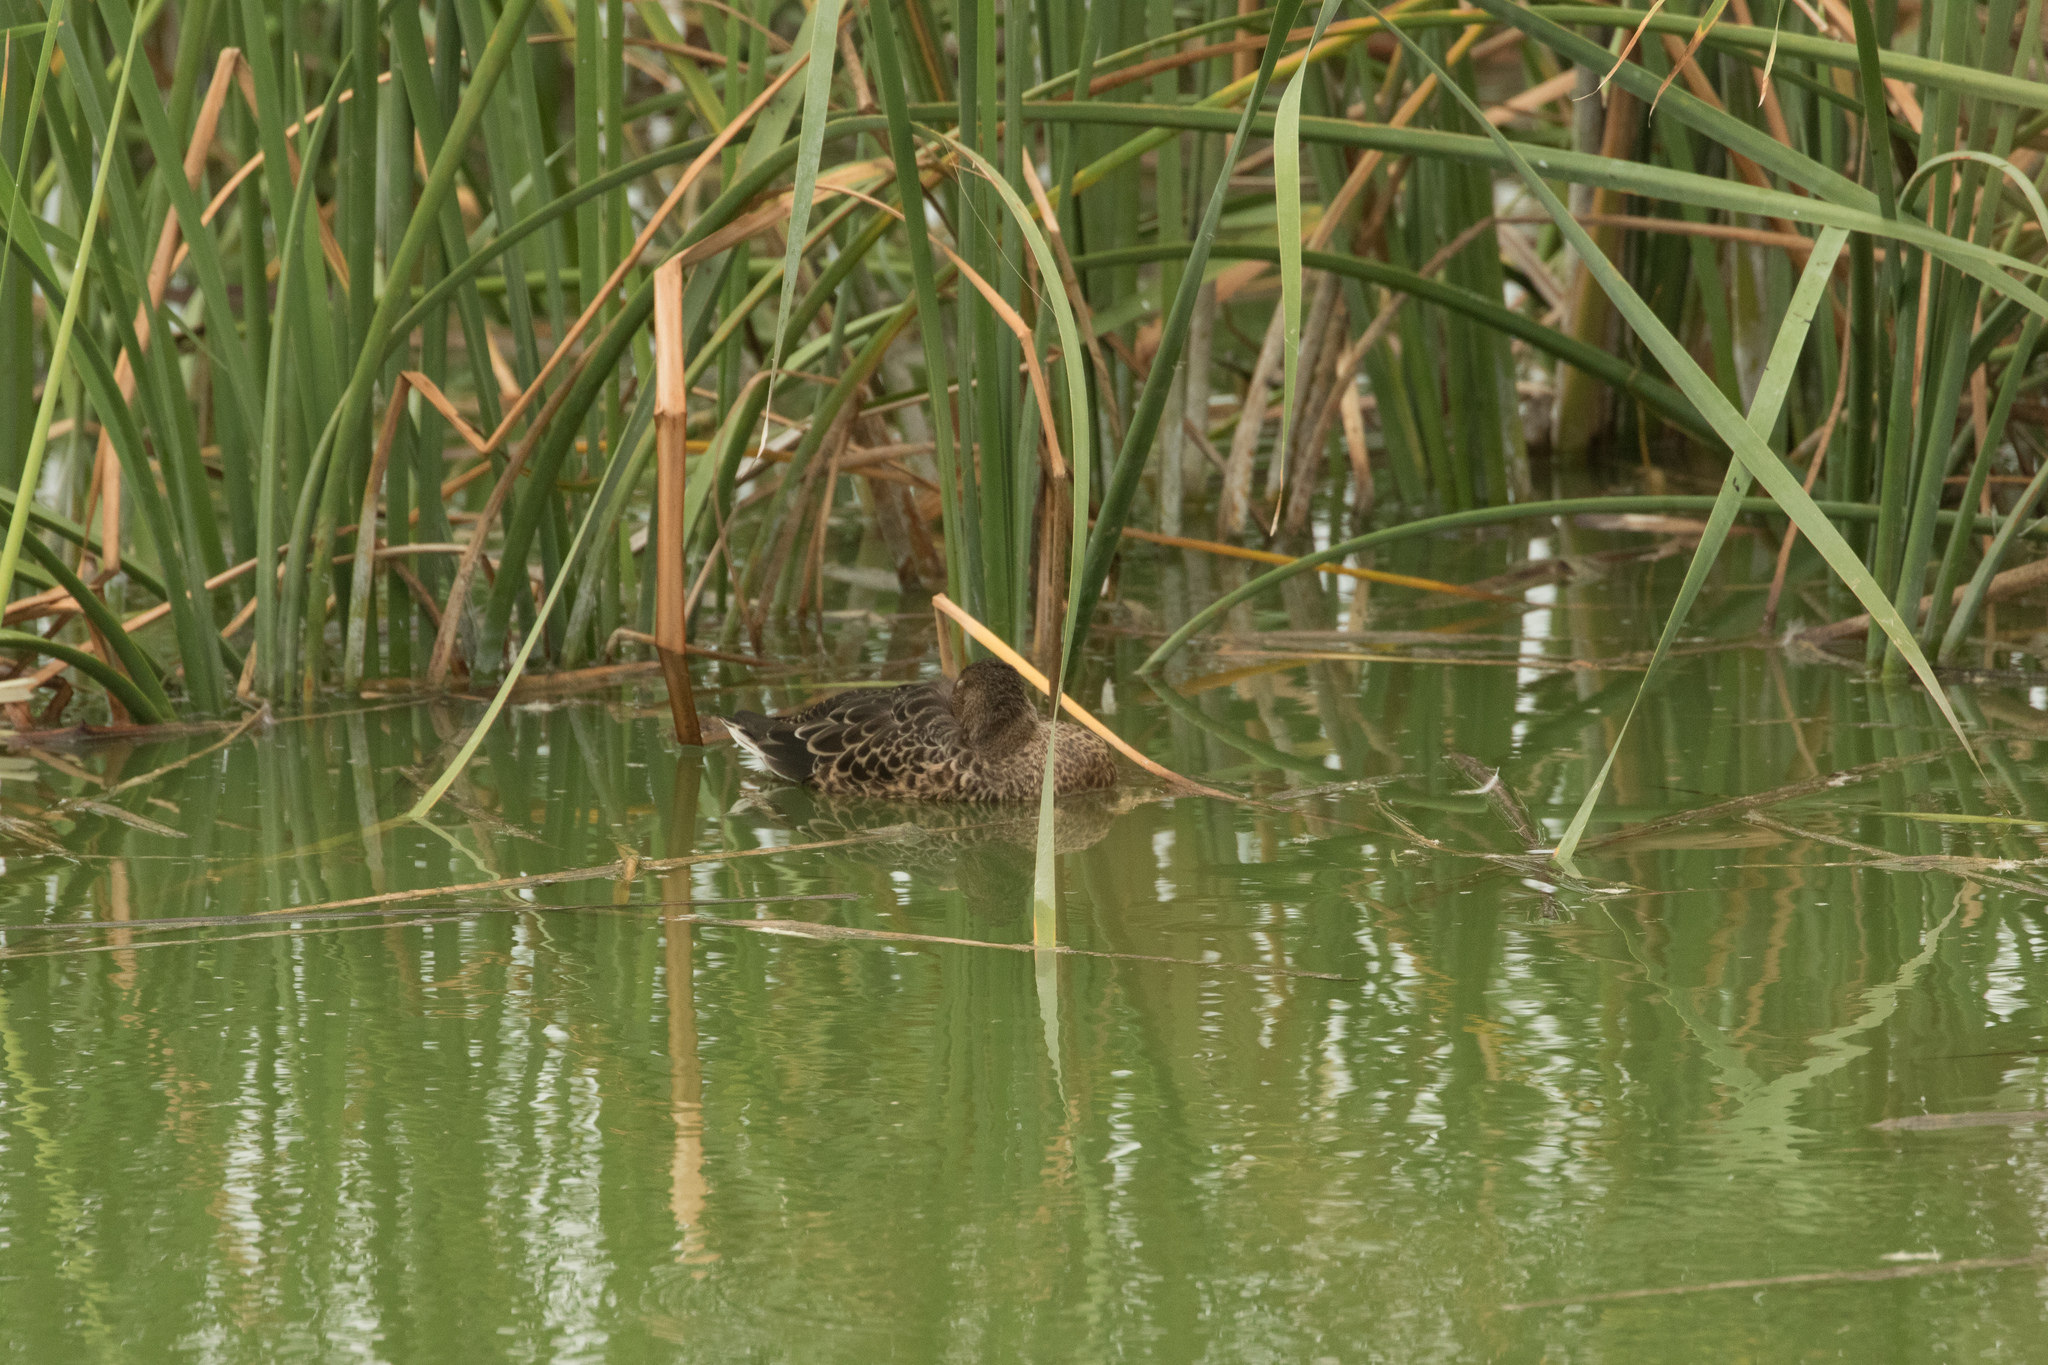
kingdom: Animalia
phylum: Chordata
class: Aves
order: Anseriformes
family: Anatidae
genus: Anas
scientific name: Anas platyrhynchos
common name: Mallard
